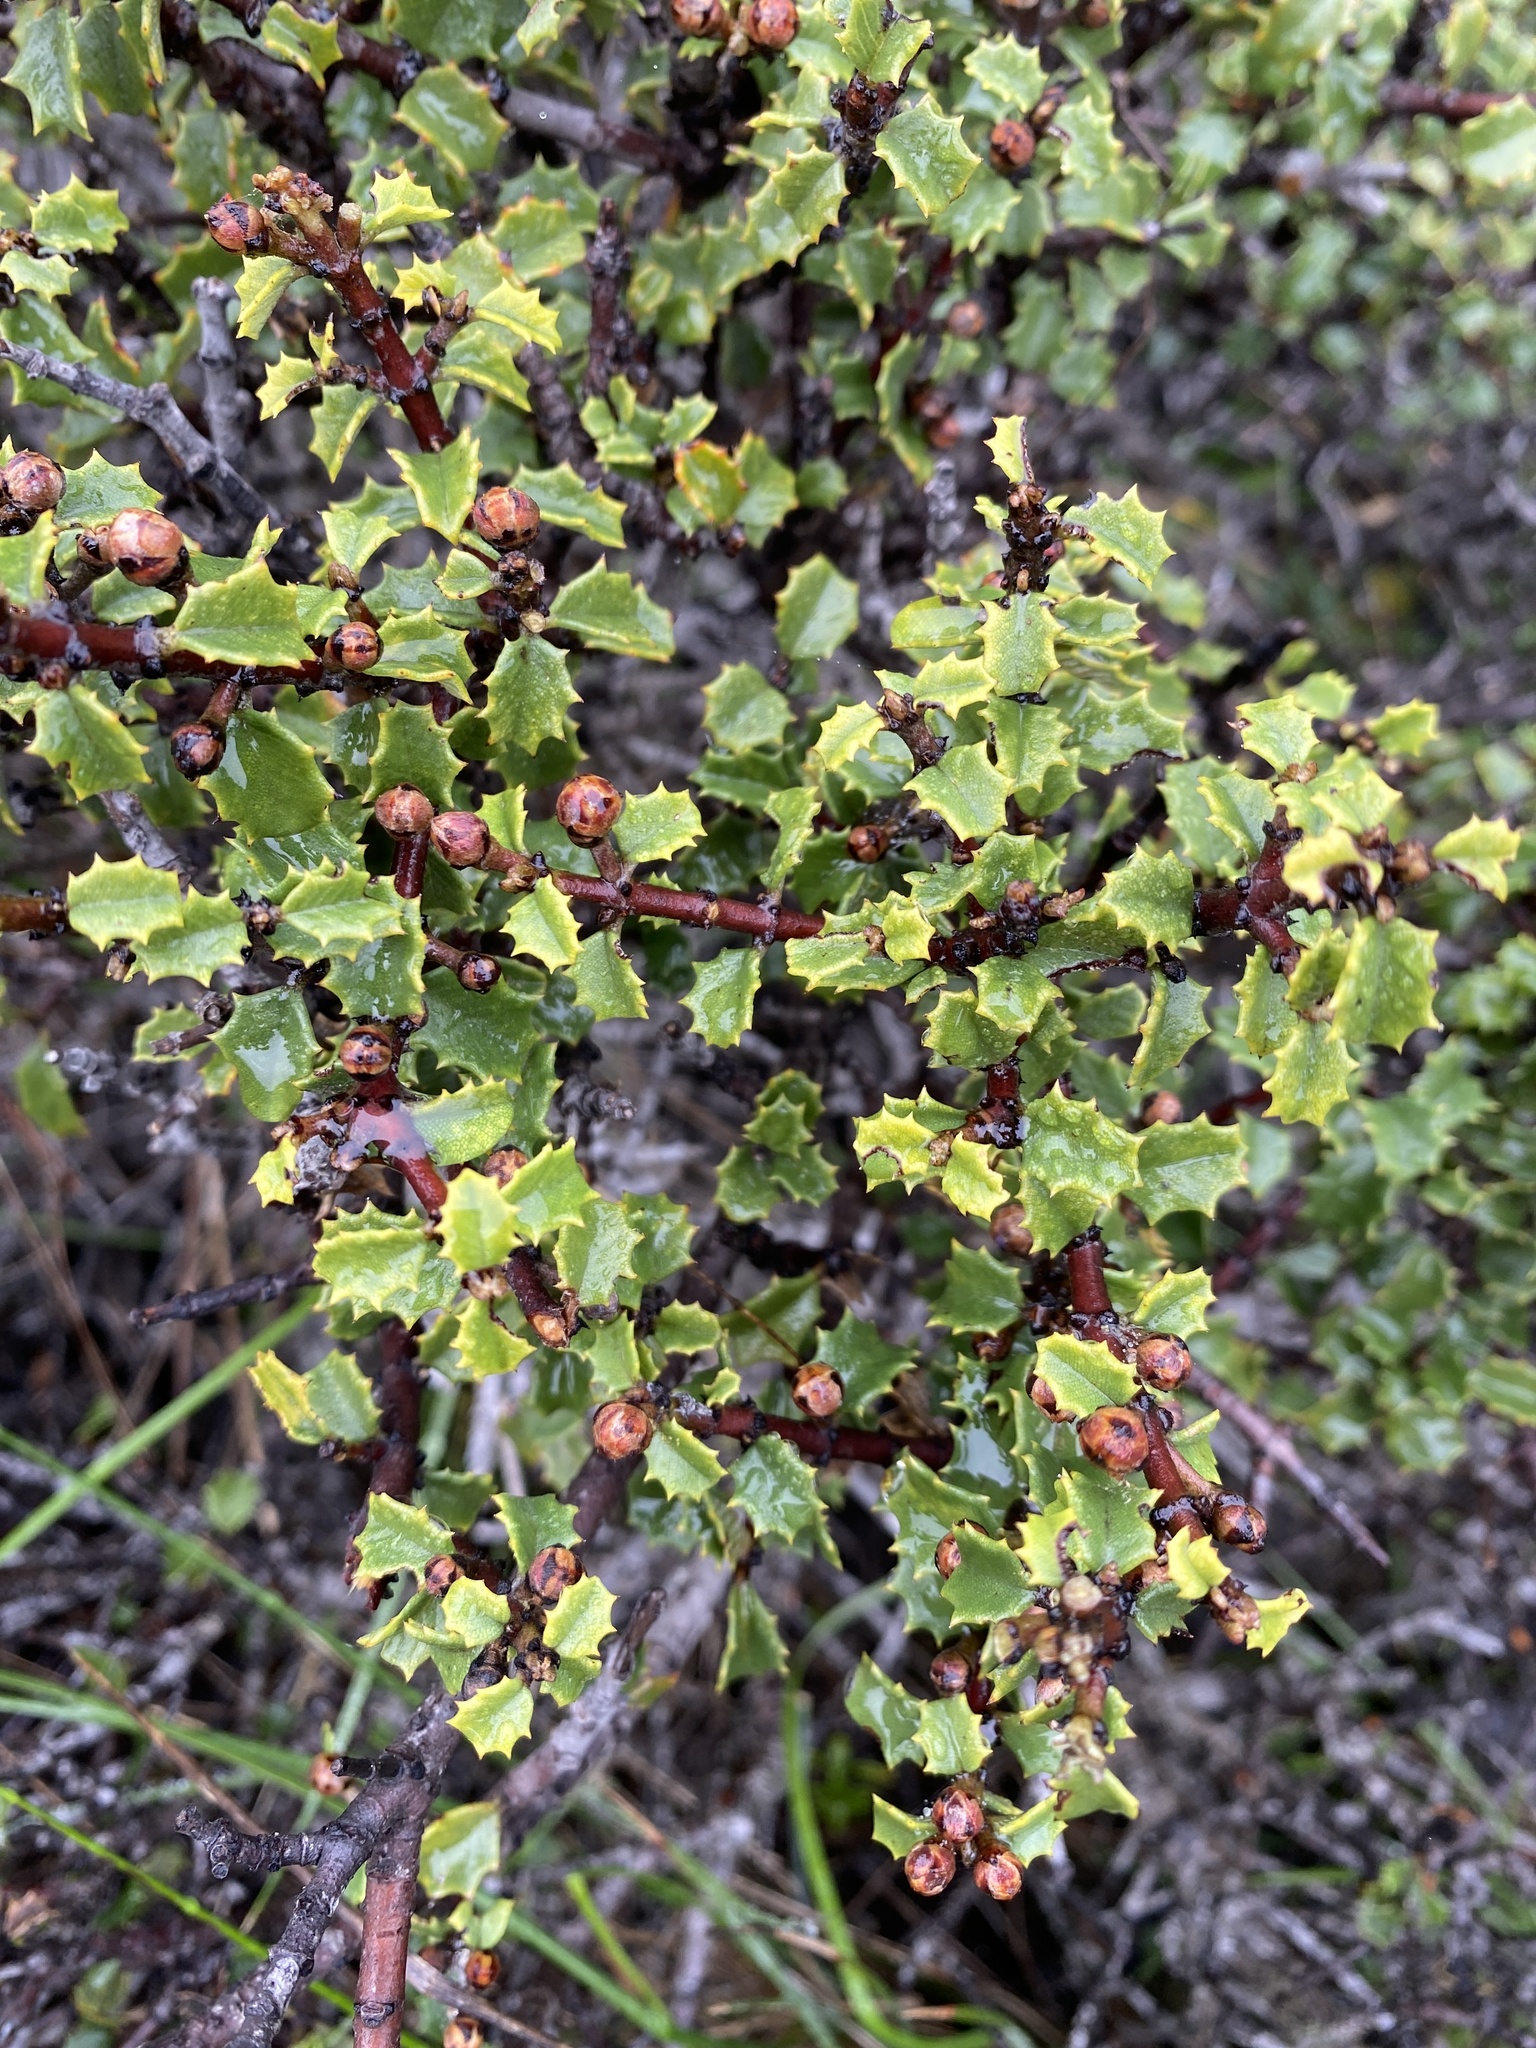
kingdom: Plantae
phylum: Tracheophyta
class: Magnoliopsida
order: Rosales
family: Rhamnaceae
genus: Ceanothus
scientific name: Ceanothus jepsonii
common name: Muskbrush
